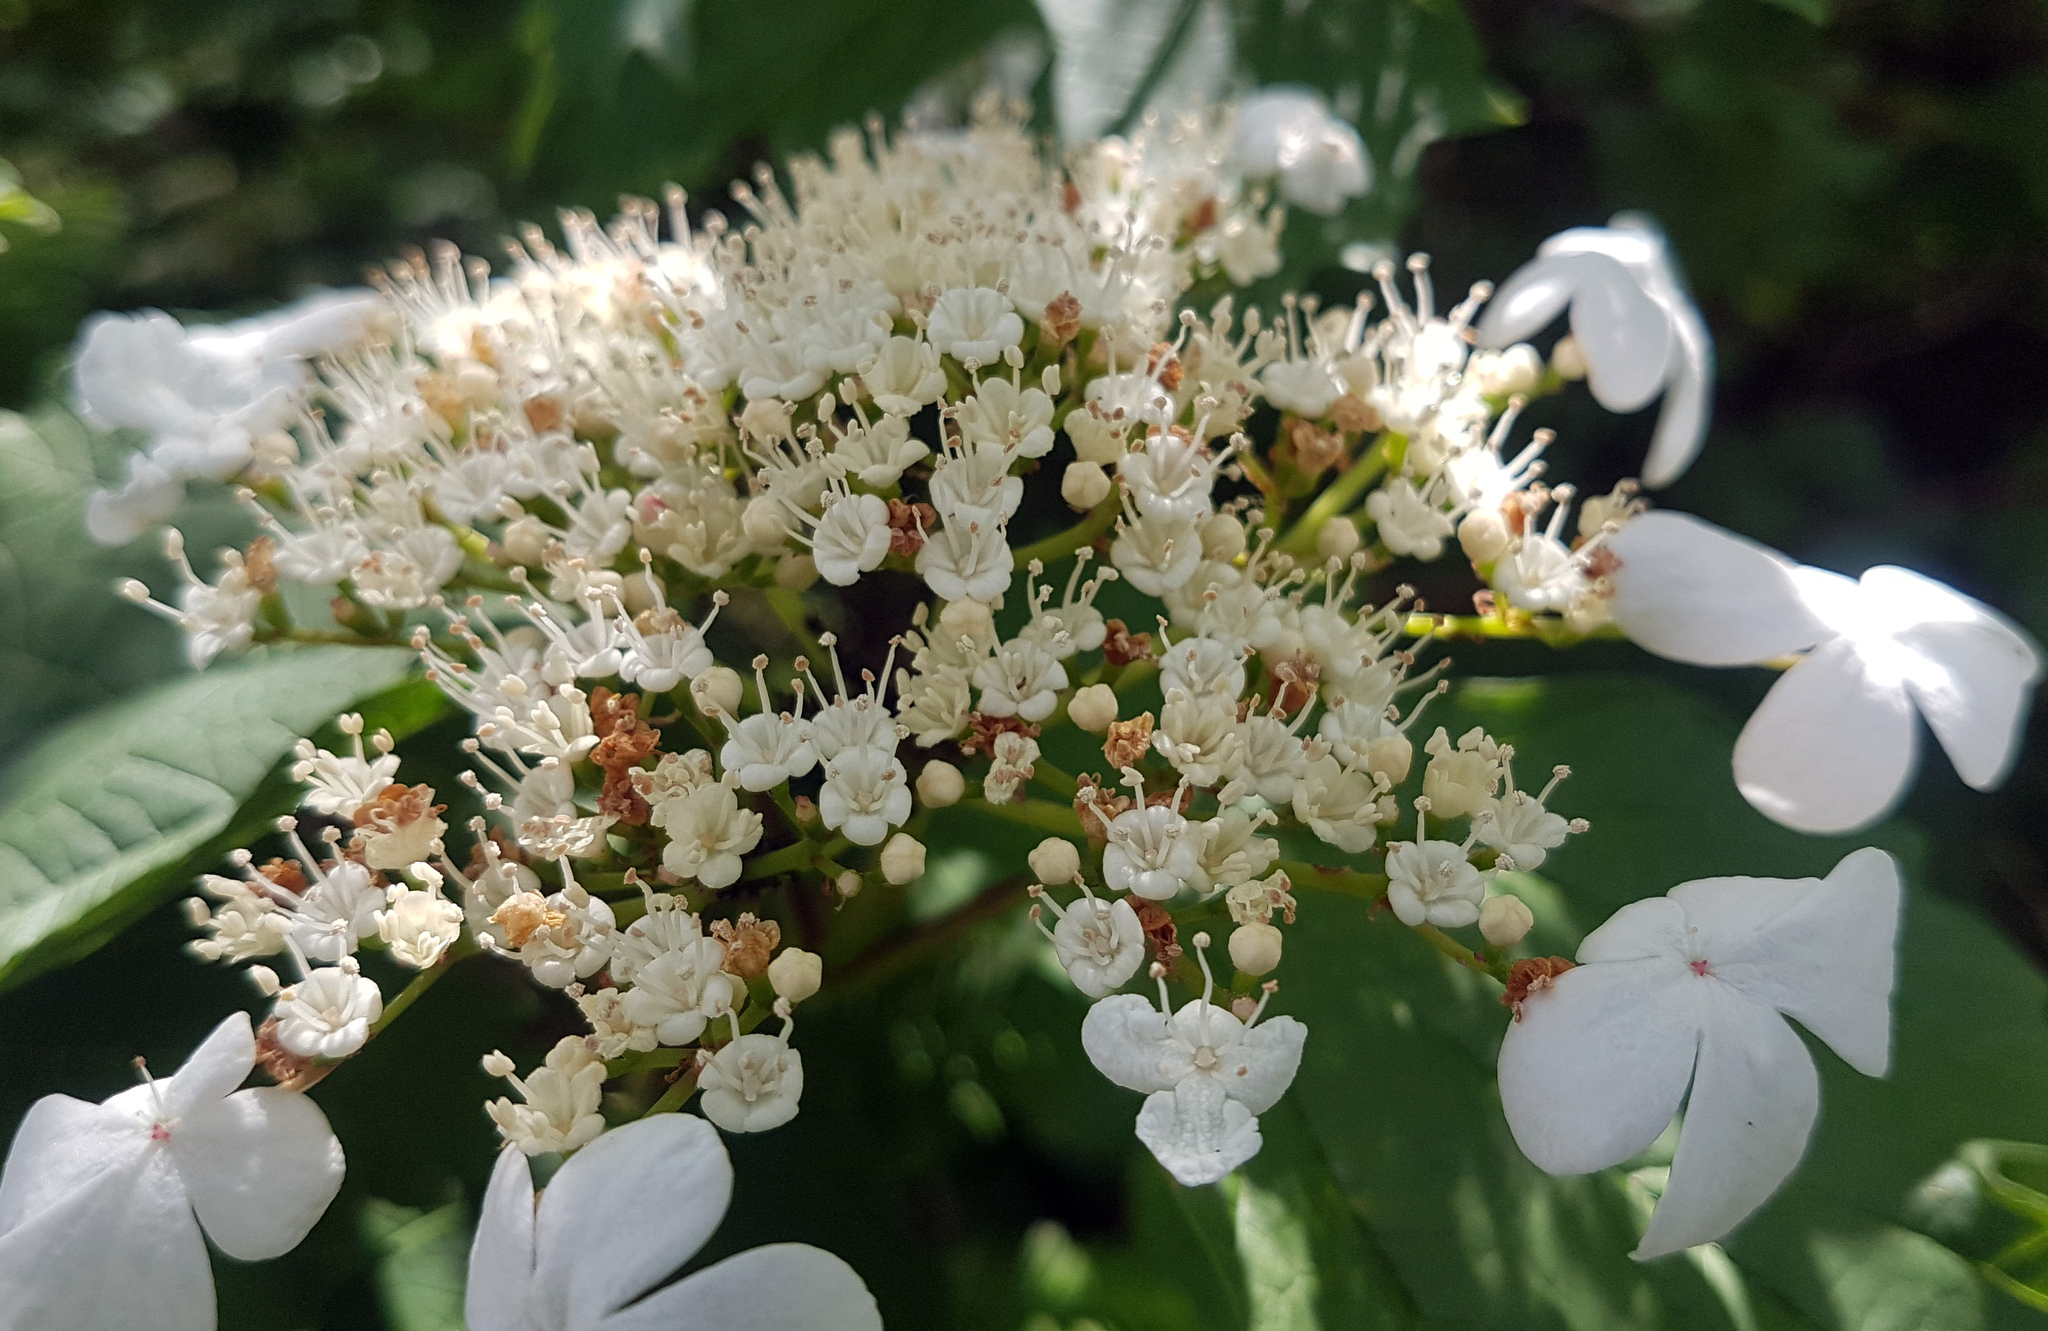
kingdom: Plantae
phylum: Tracheophyta
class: Magnoliopsida
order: Dipsacales
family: Viburnaceae
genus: Viburnum
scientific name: Viburnum opulus
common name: Guelder-rose
